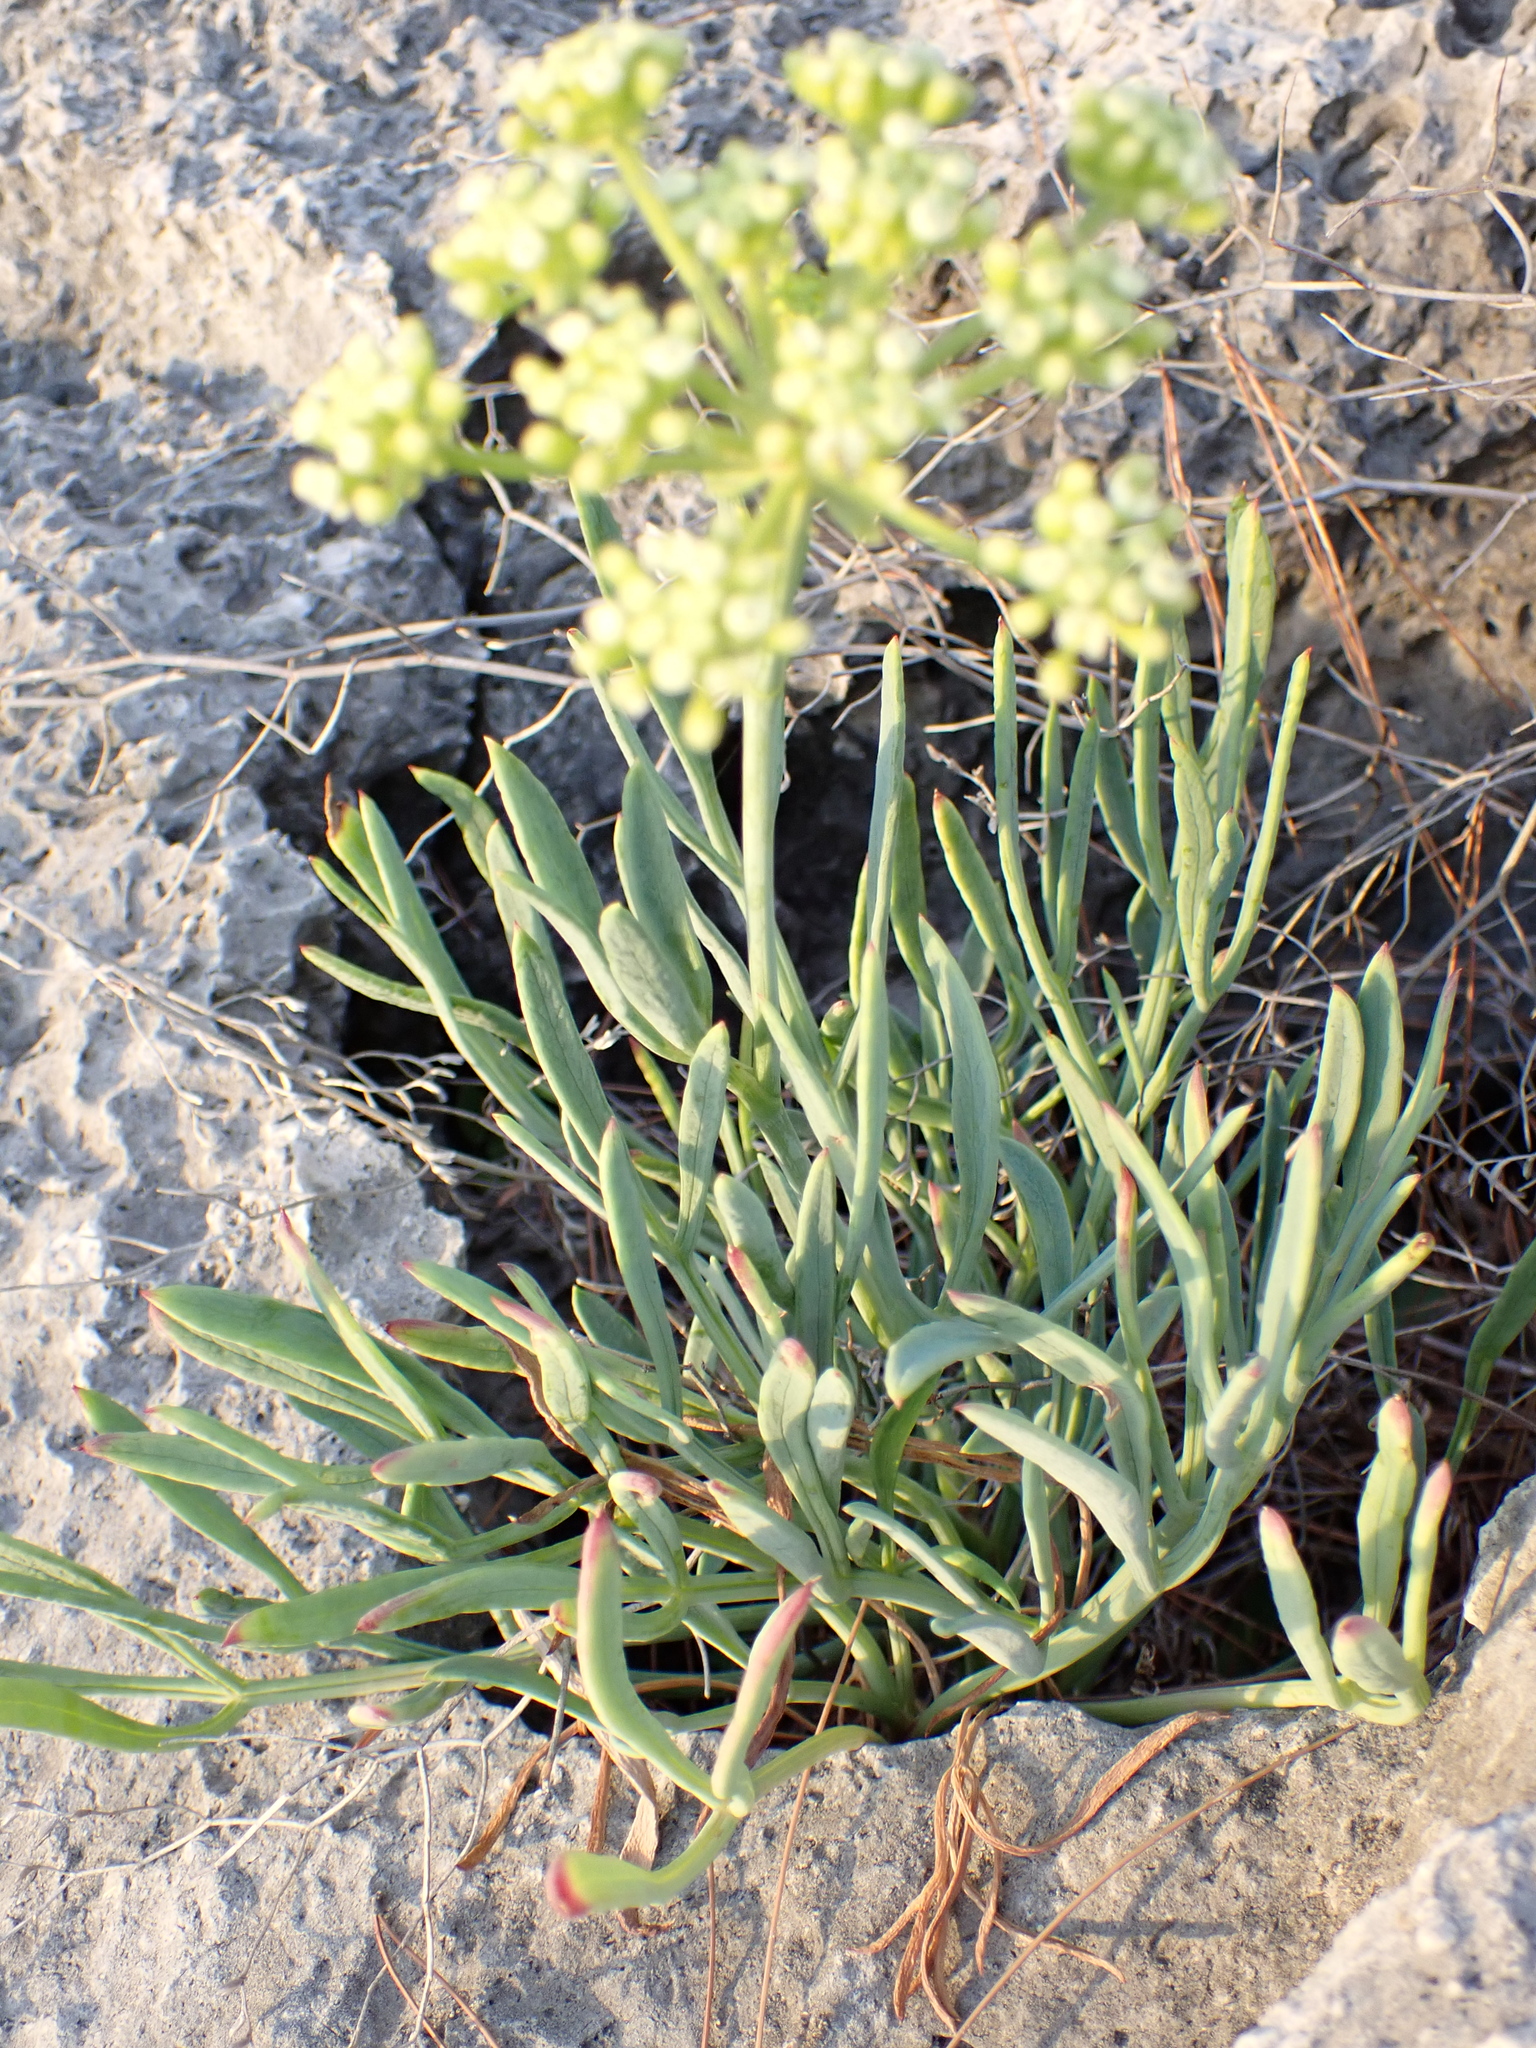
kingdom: Plantae
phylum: Tracheophyta
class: Magnoliopsida
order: Apiales
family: Apiaceae
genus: Crithmum
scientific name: Crithmum maritimum
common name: Rock samphire
